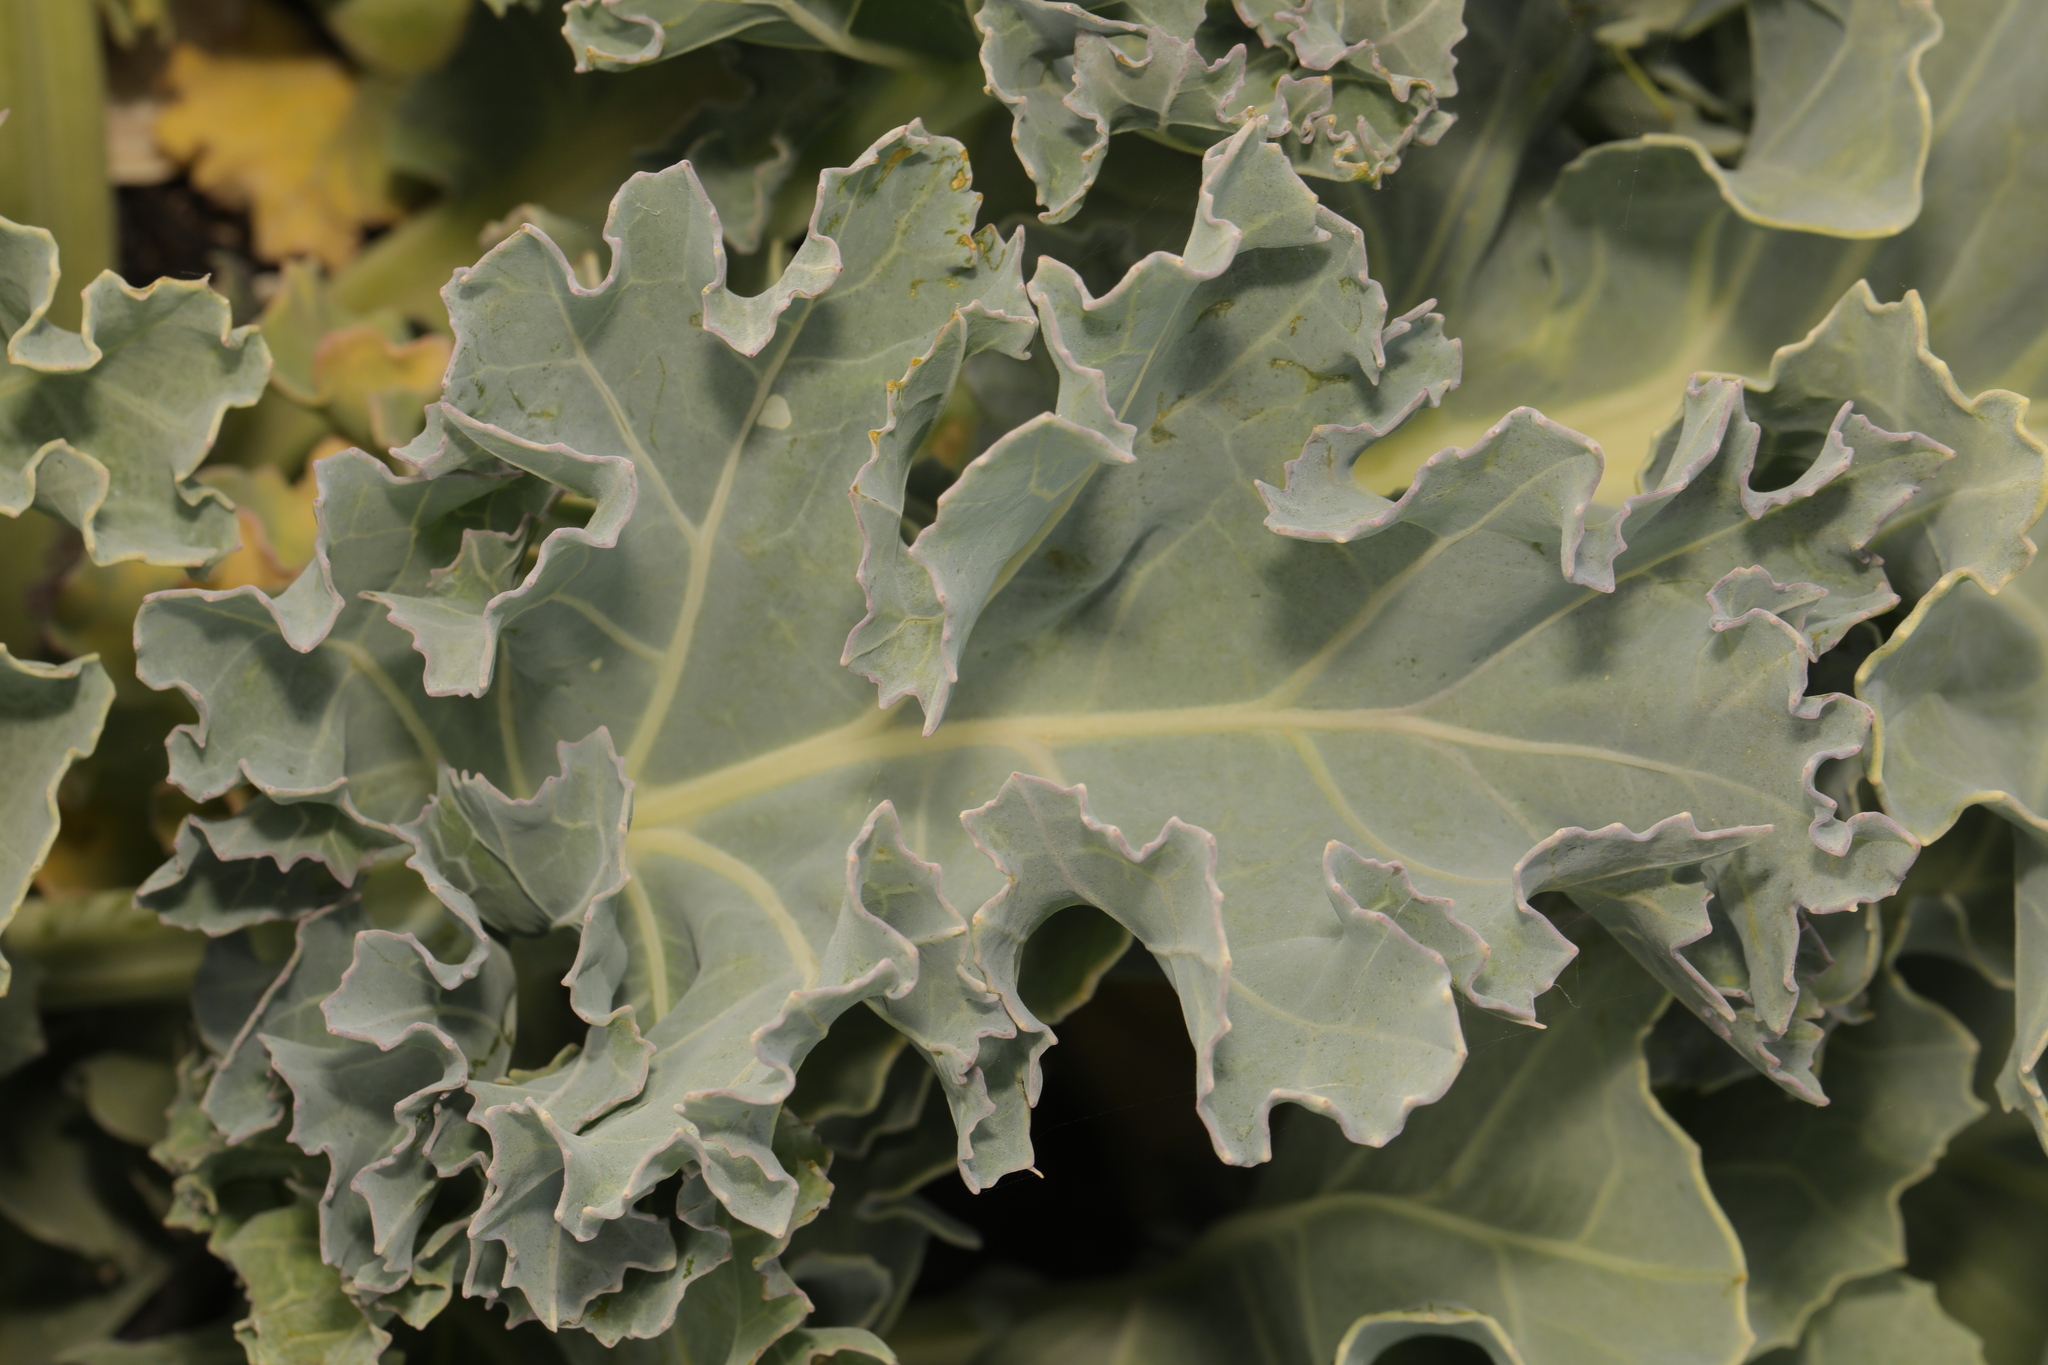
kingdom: Plantae
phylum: Tracheophyta
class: Magnoliopsida
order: Brassicales
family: Brassicaceae
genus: Crambe
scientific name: Crambe maritima
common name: Sea-kale
